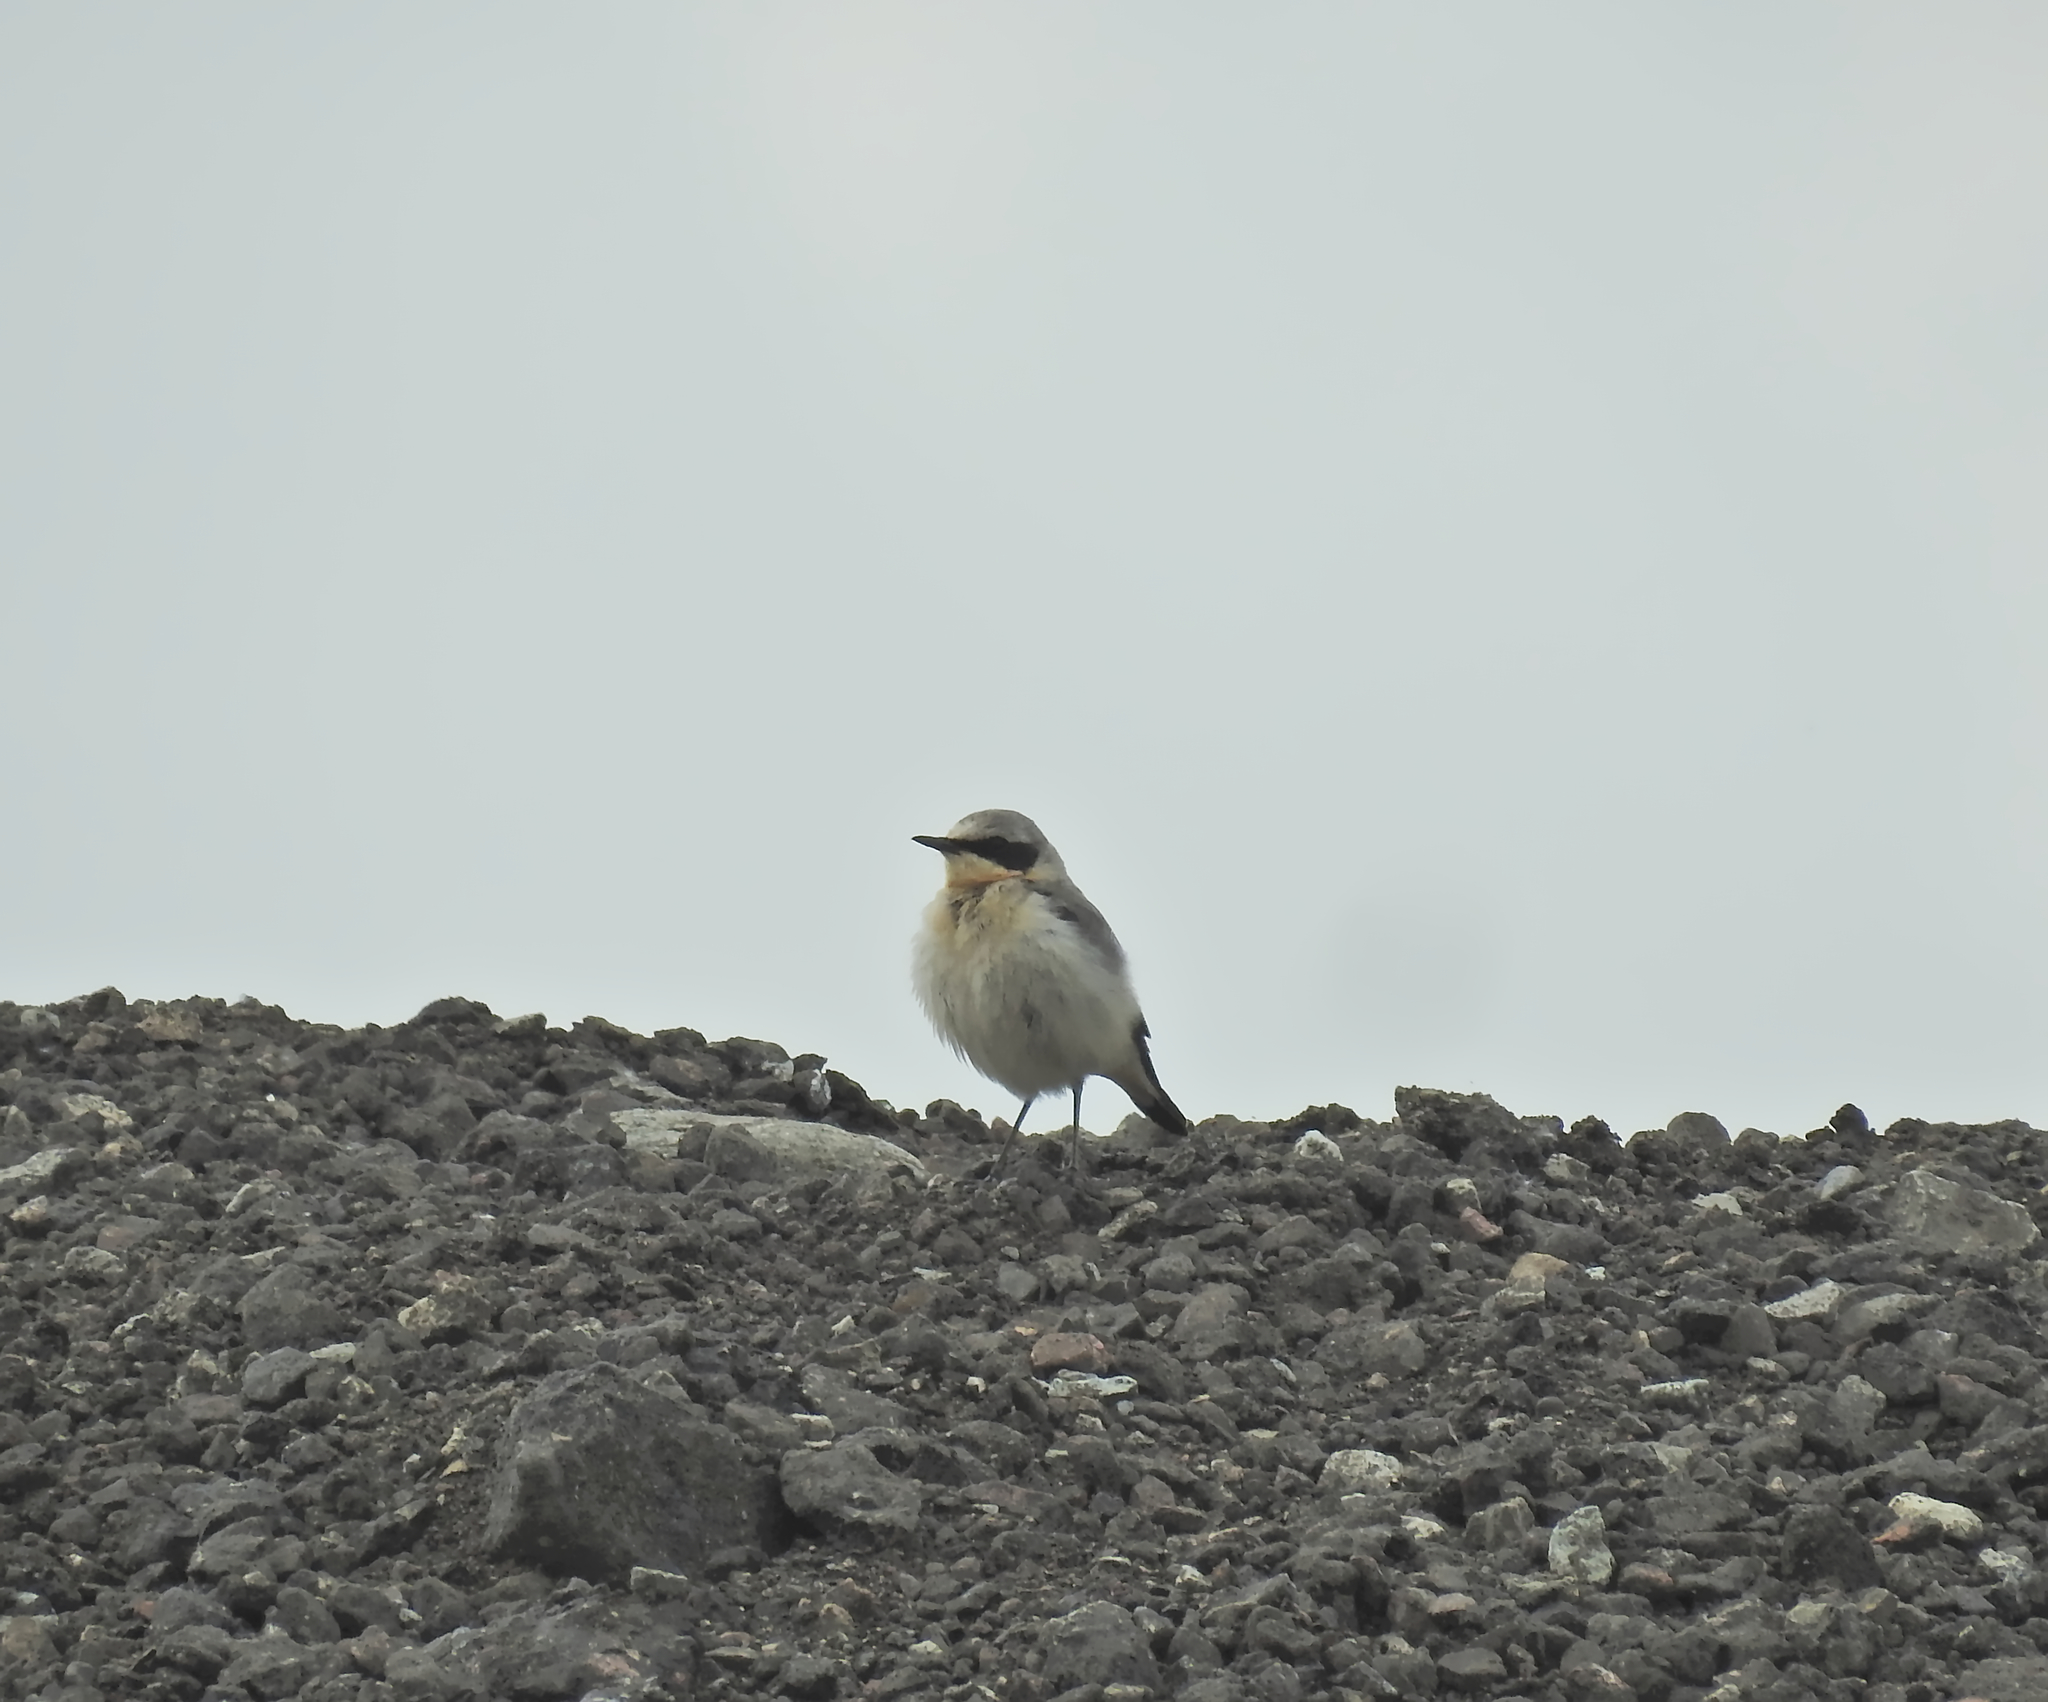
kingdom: Animalia
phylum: Chordata
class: Aves
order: Passeriformes
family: Muscicapidae
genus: Oenanthe
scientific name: Oenanthe oenanthe
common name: Northern wheatear
